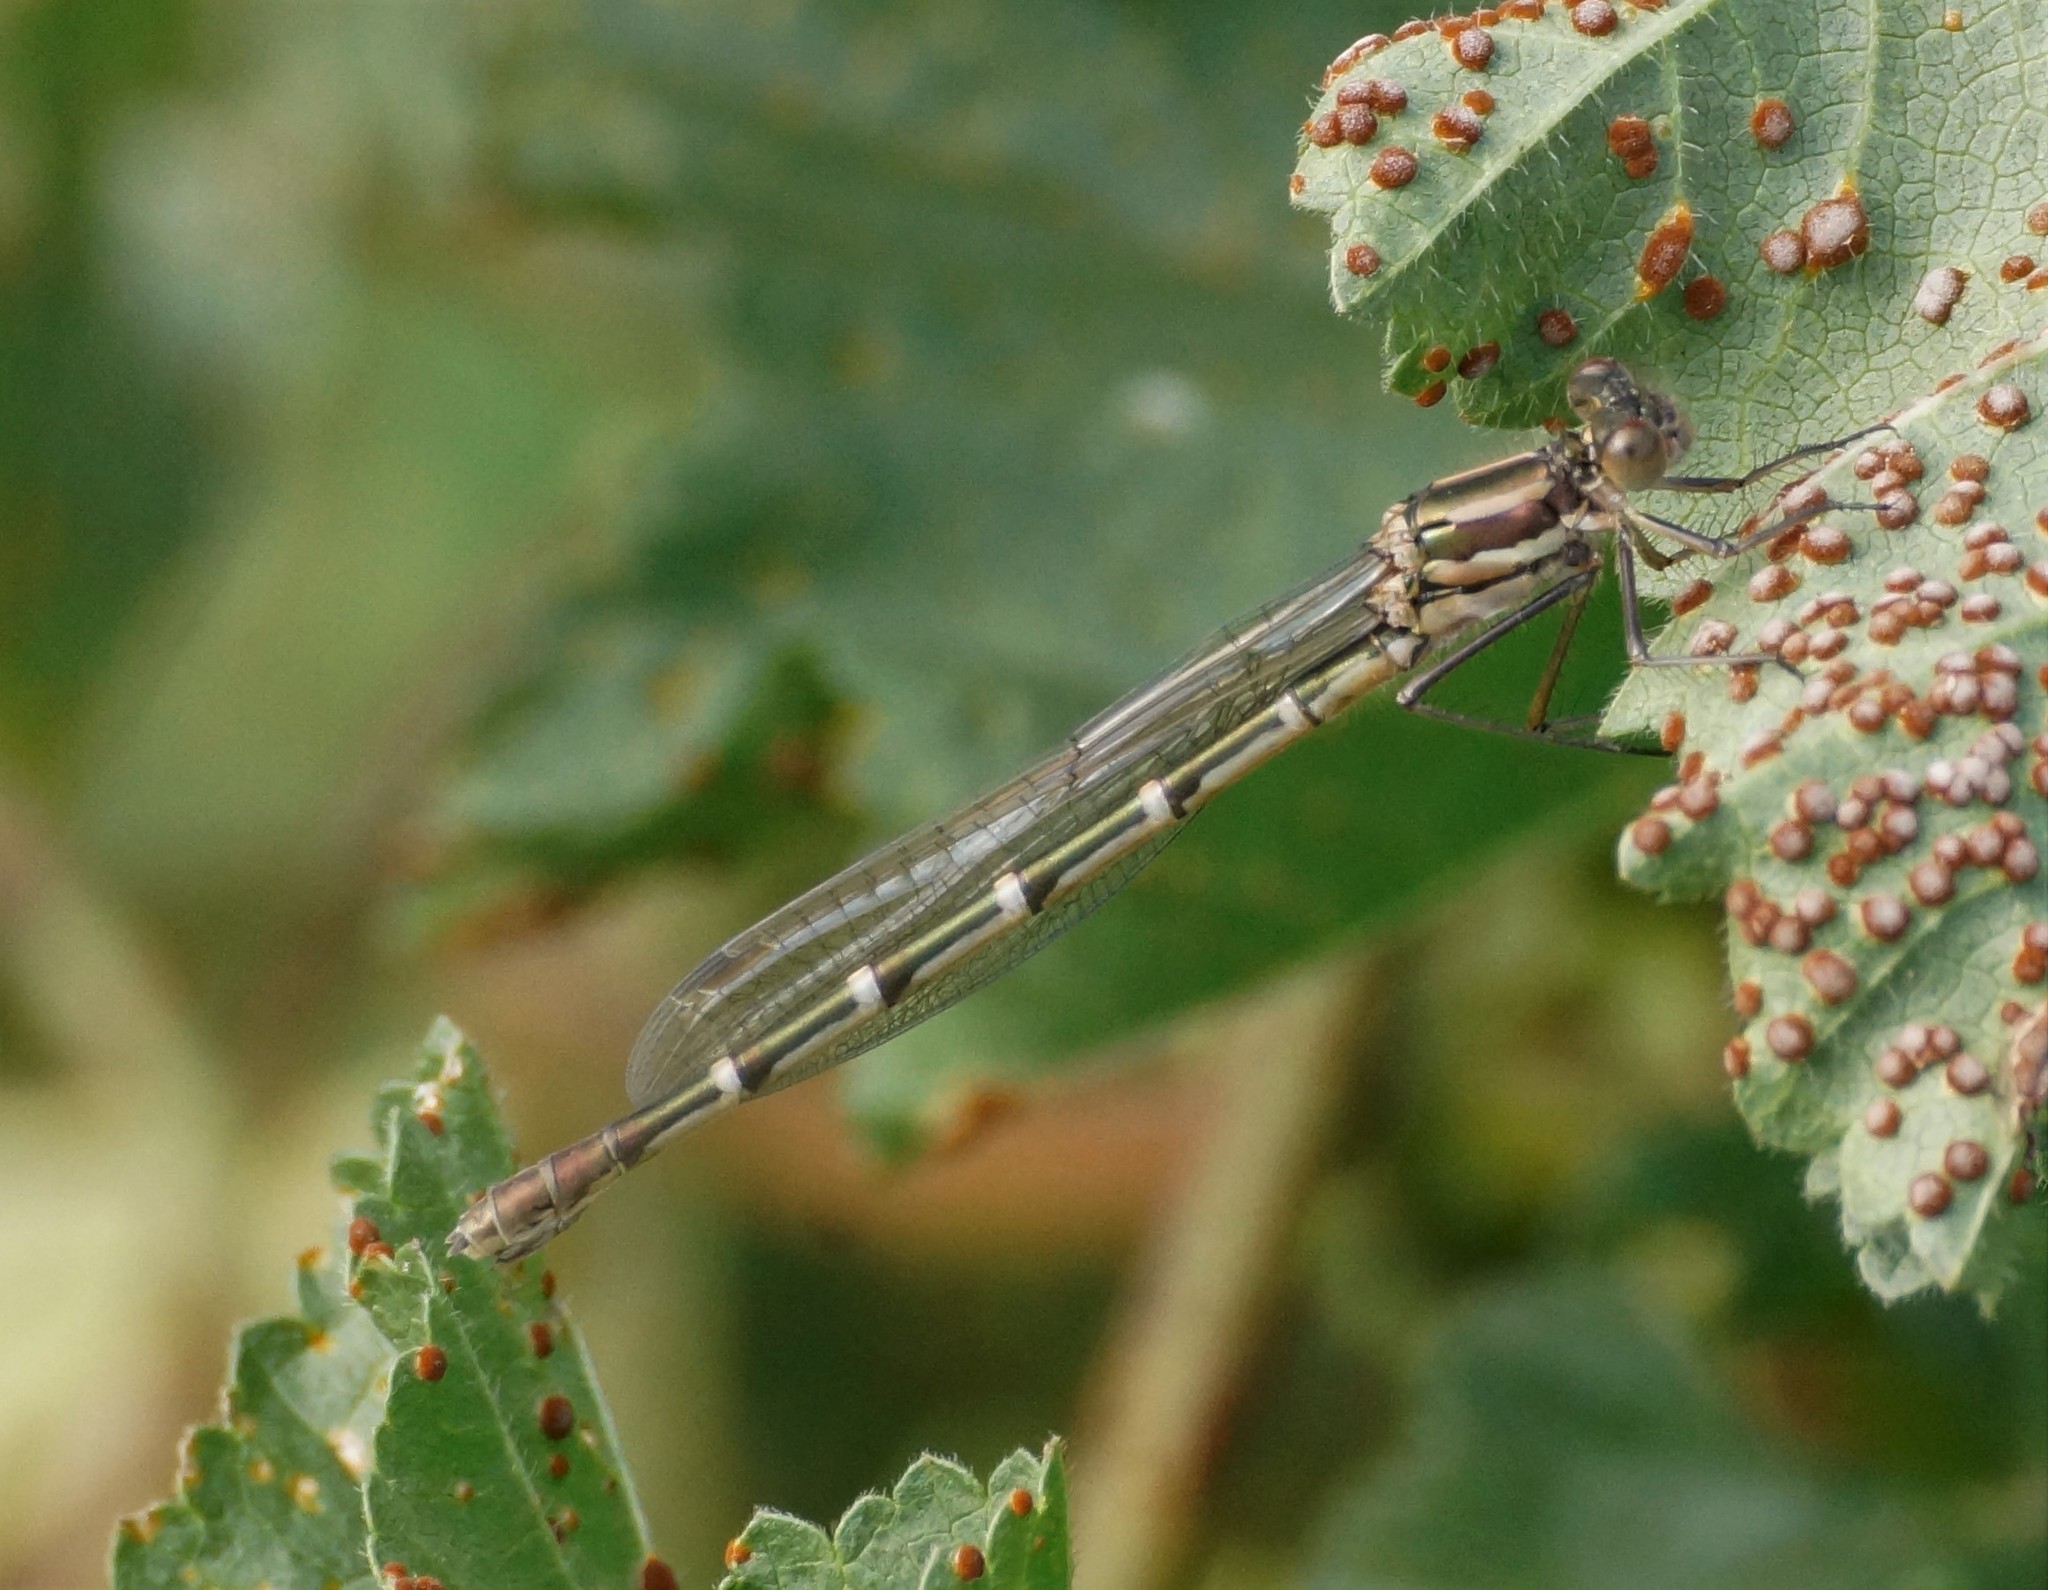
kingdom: Animalia
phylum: Arthropoda
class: Insecta
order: Odonata
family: Lestidae
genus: Austrolestes
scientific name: Austrolestes annulosus
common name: Blue ringtail
